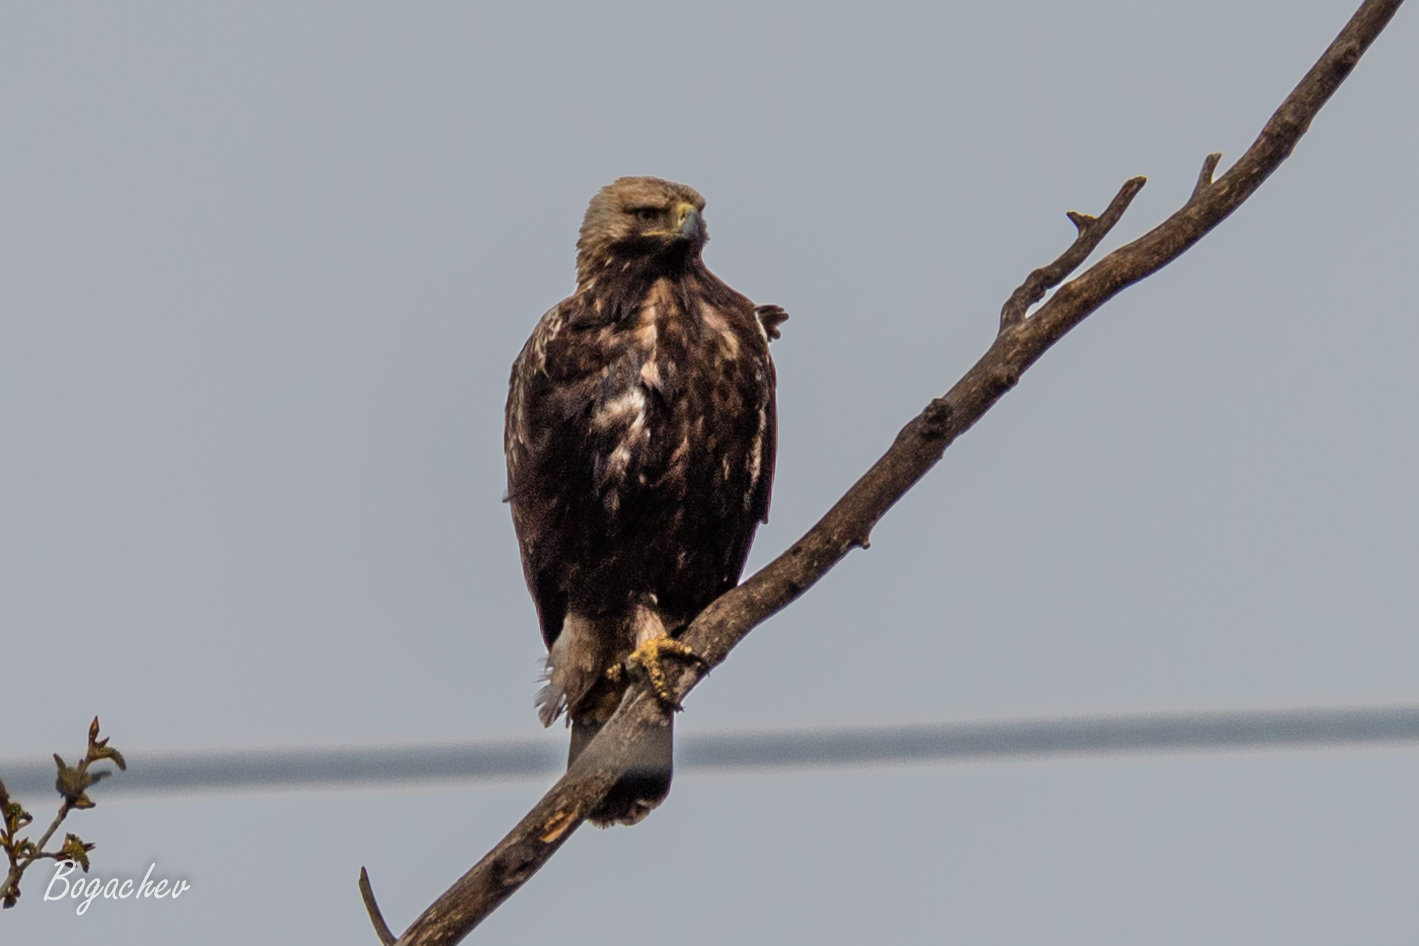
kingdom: Animalia
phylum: Chordata
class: Aves
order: Accipitriformes
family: Accipitridae
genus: Aquila
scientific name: Aquila heliaca
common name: Eastern imperial eagle
